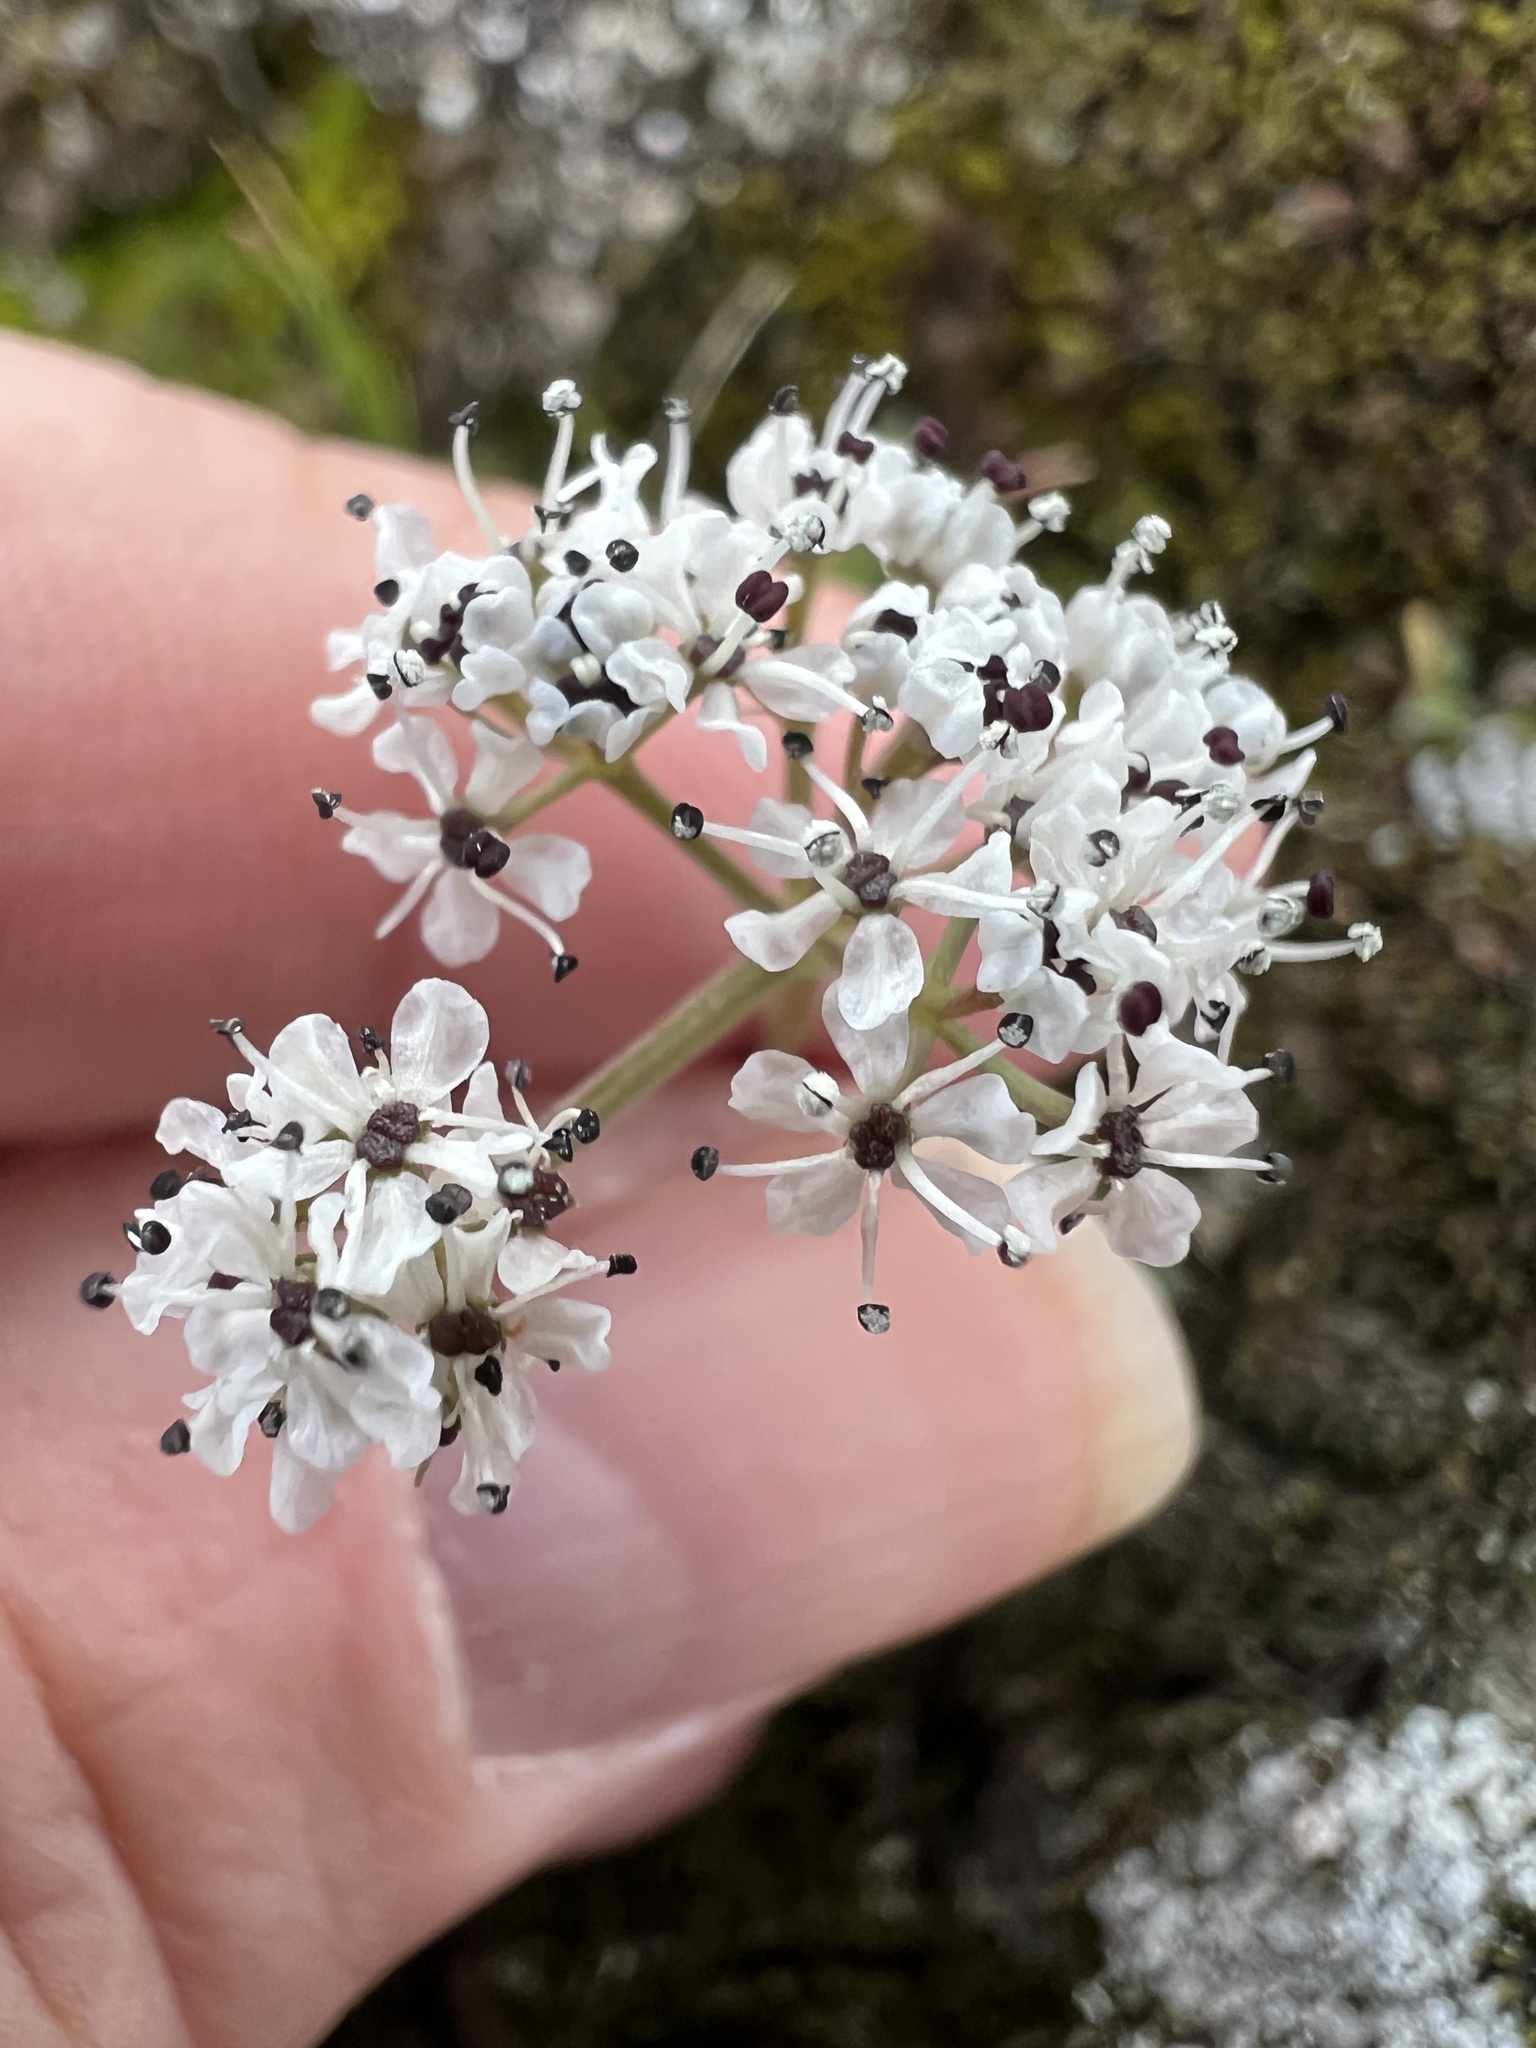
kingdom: Plantae
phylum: Tracheophyta
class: Magnoliopsida
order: Apiales
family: Apiaceae
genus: Lomatium
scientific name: Lomatium gormanii
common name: Gorman's biscuitroot
